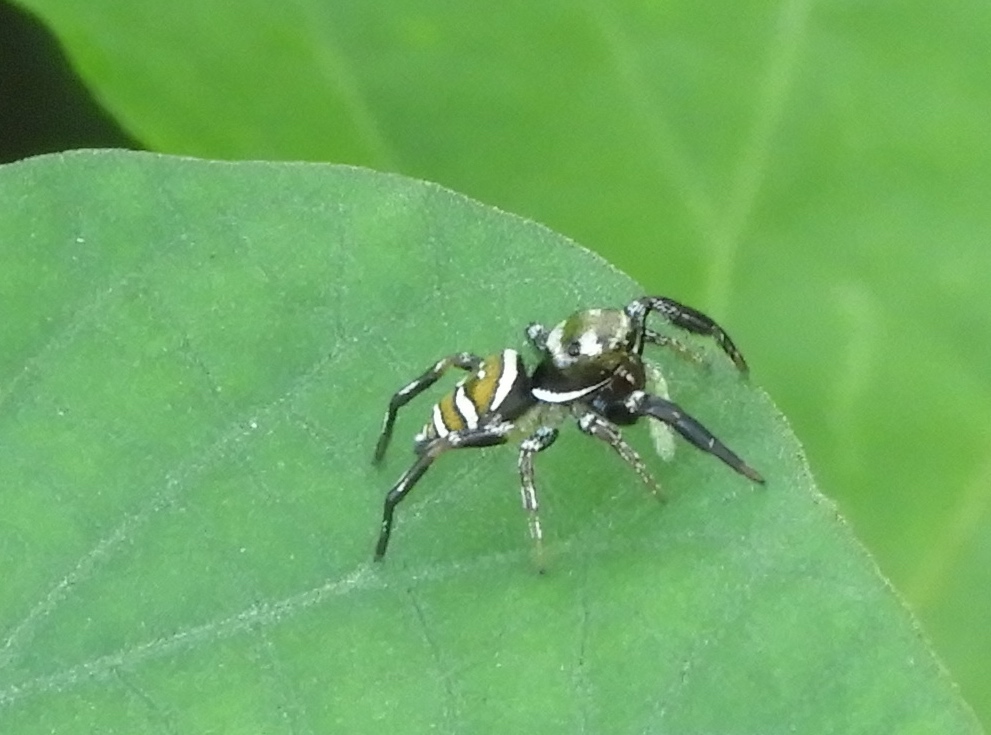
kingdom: Animalia
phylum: Arthropoda
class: Arachnida
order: Araneae
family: Salticidae
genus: Sassacus
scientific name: Sassacus
